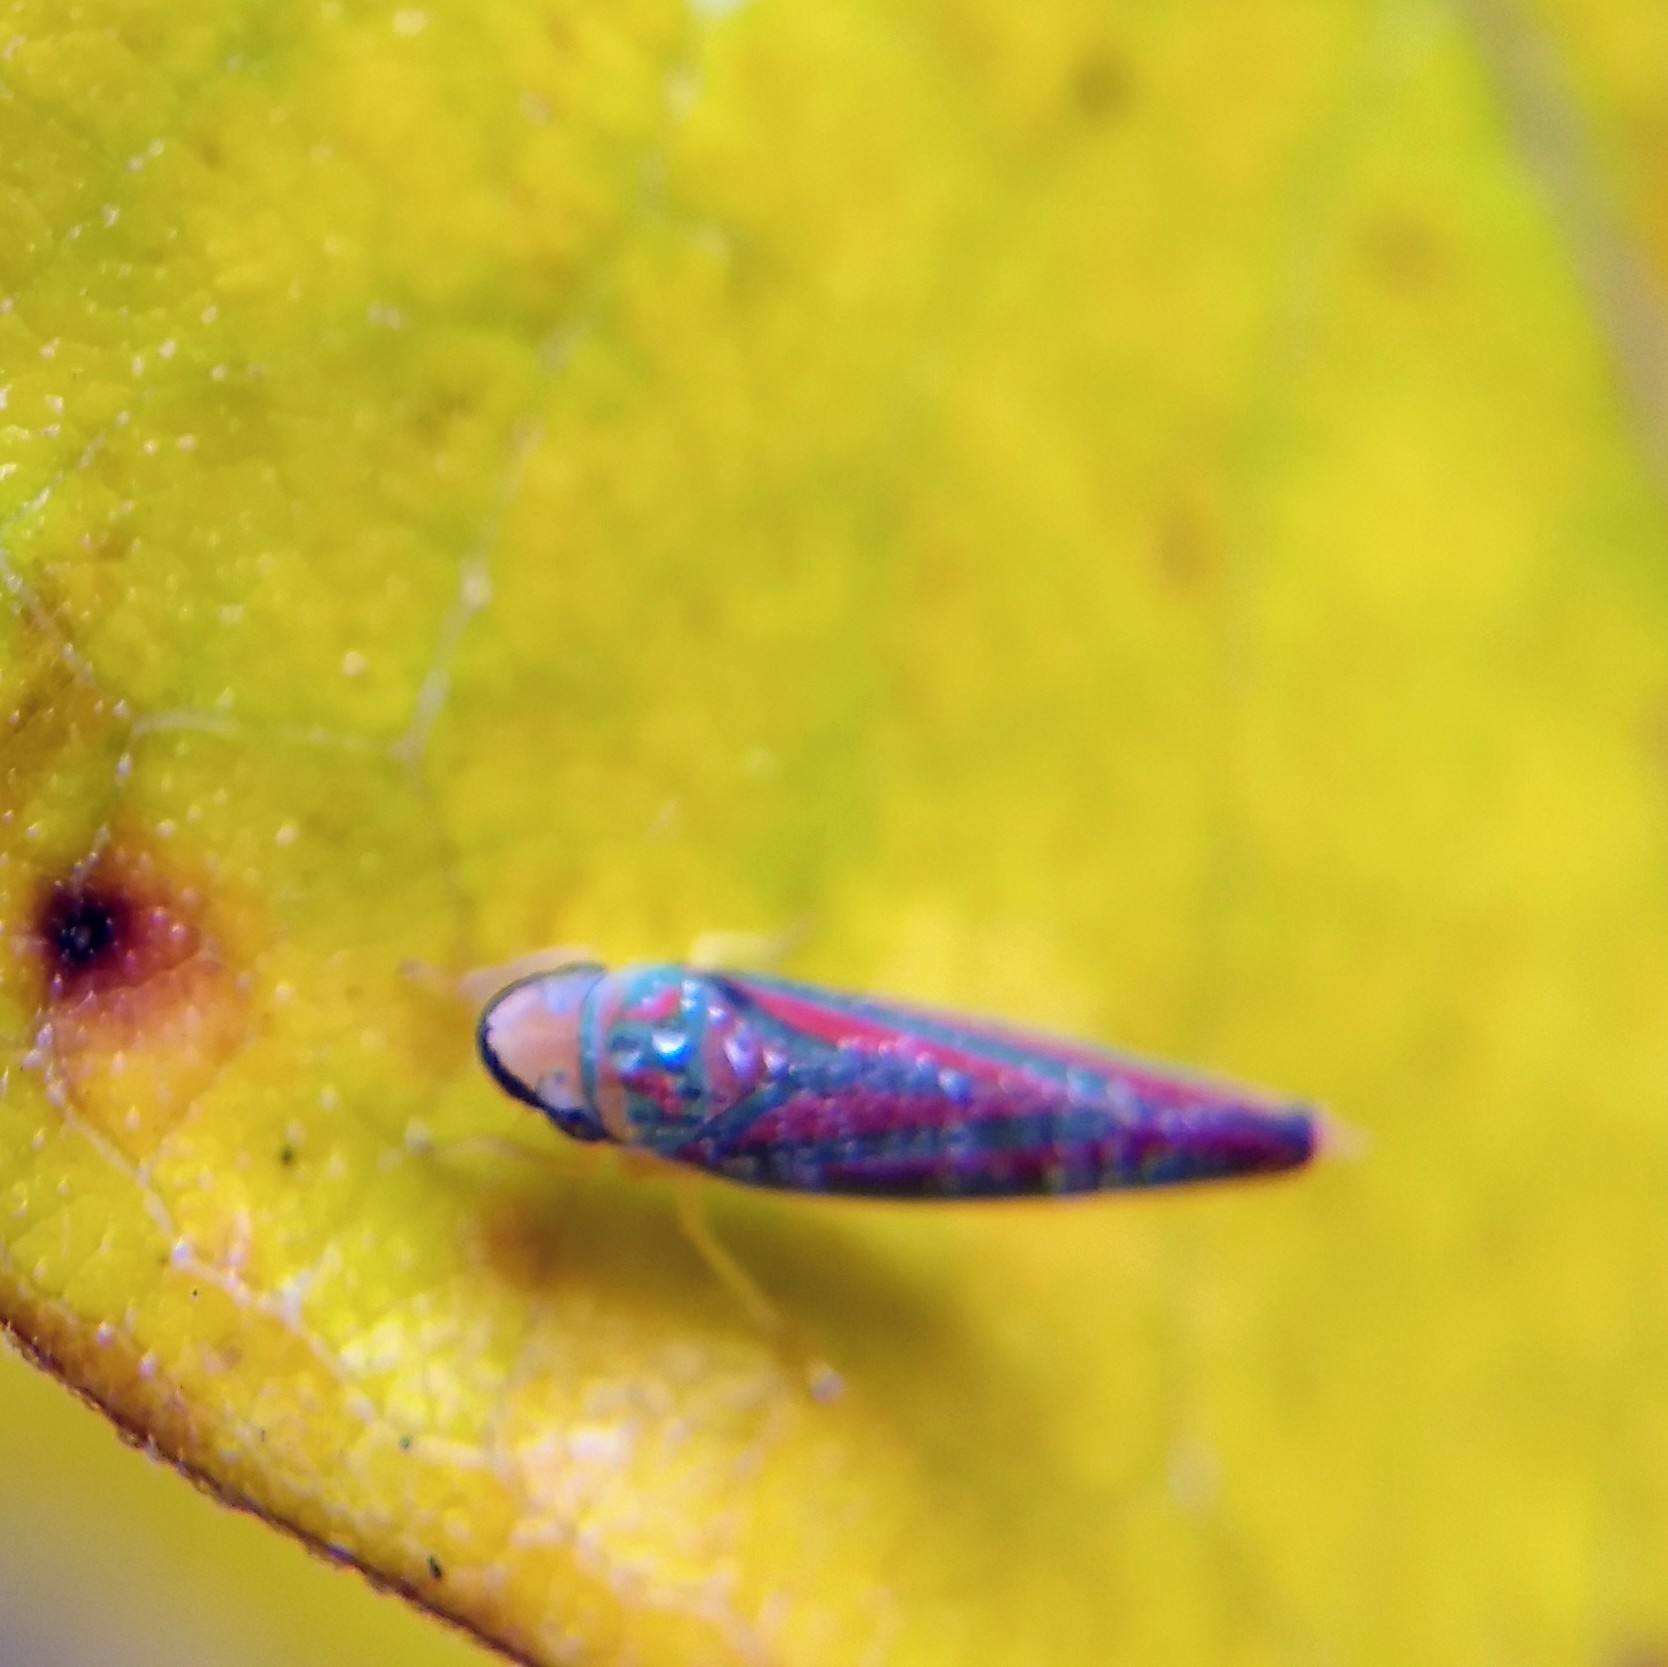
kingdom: Animalia
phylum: Arthropoda
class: Insecta
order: Hemiptera
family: Cicadellidae
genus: Graphocephala
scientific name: Graphocephala fennahi
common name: Rhododendron leafhopper
